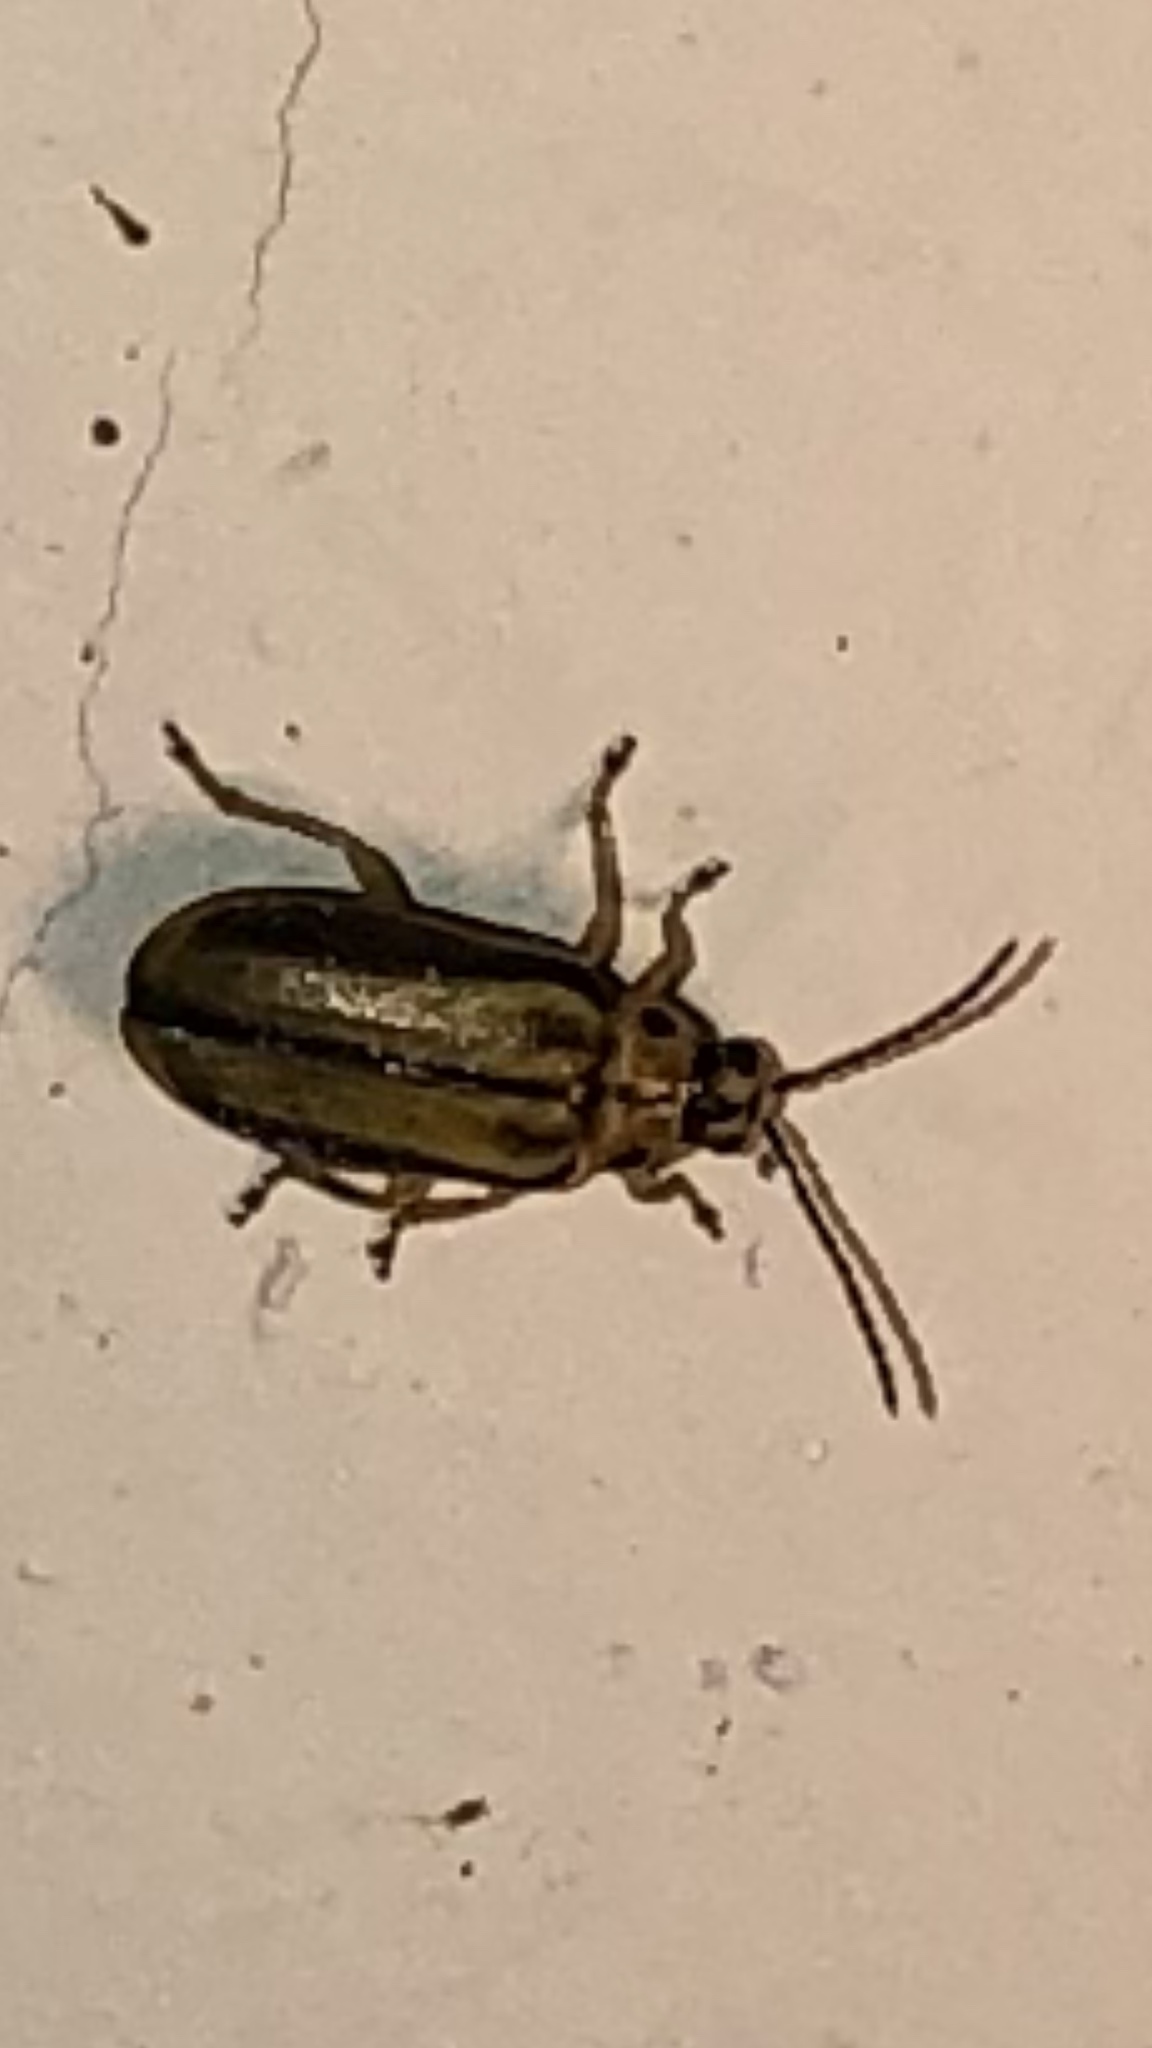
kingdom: Animalia
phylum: Arthropoda
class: Insecta
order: Coleoptera
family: Chrysomelidae
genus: Xanthogaleruca
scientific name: Xanthogaleruca luteola
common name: Elm leaf beetle
